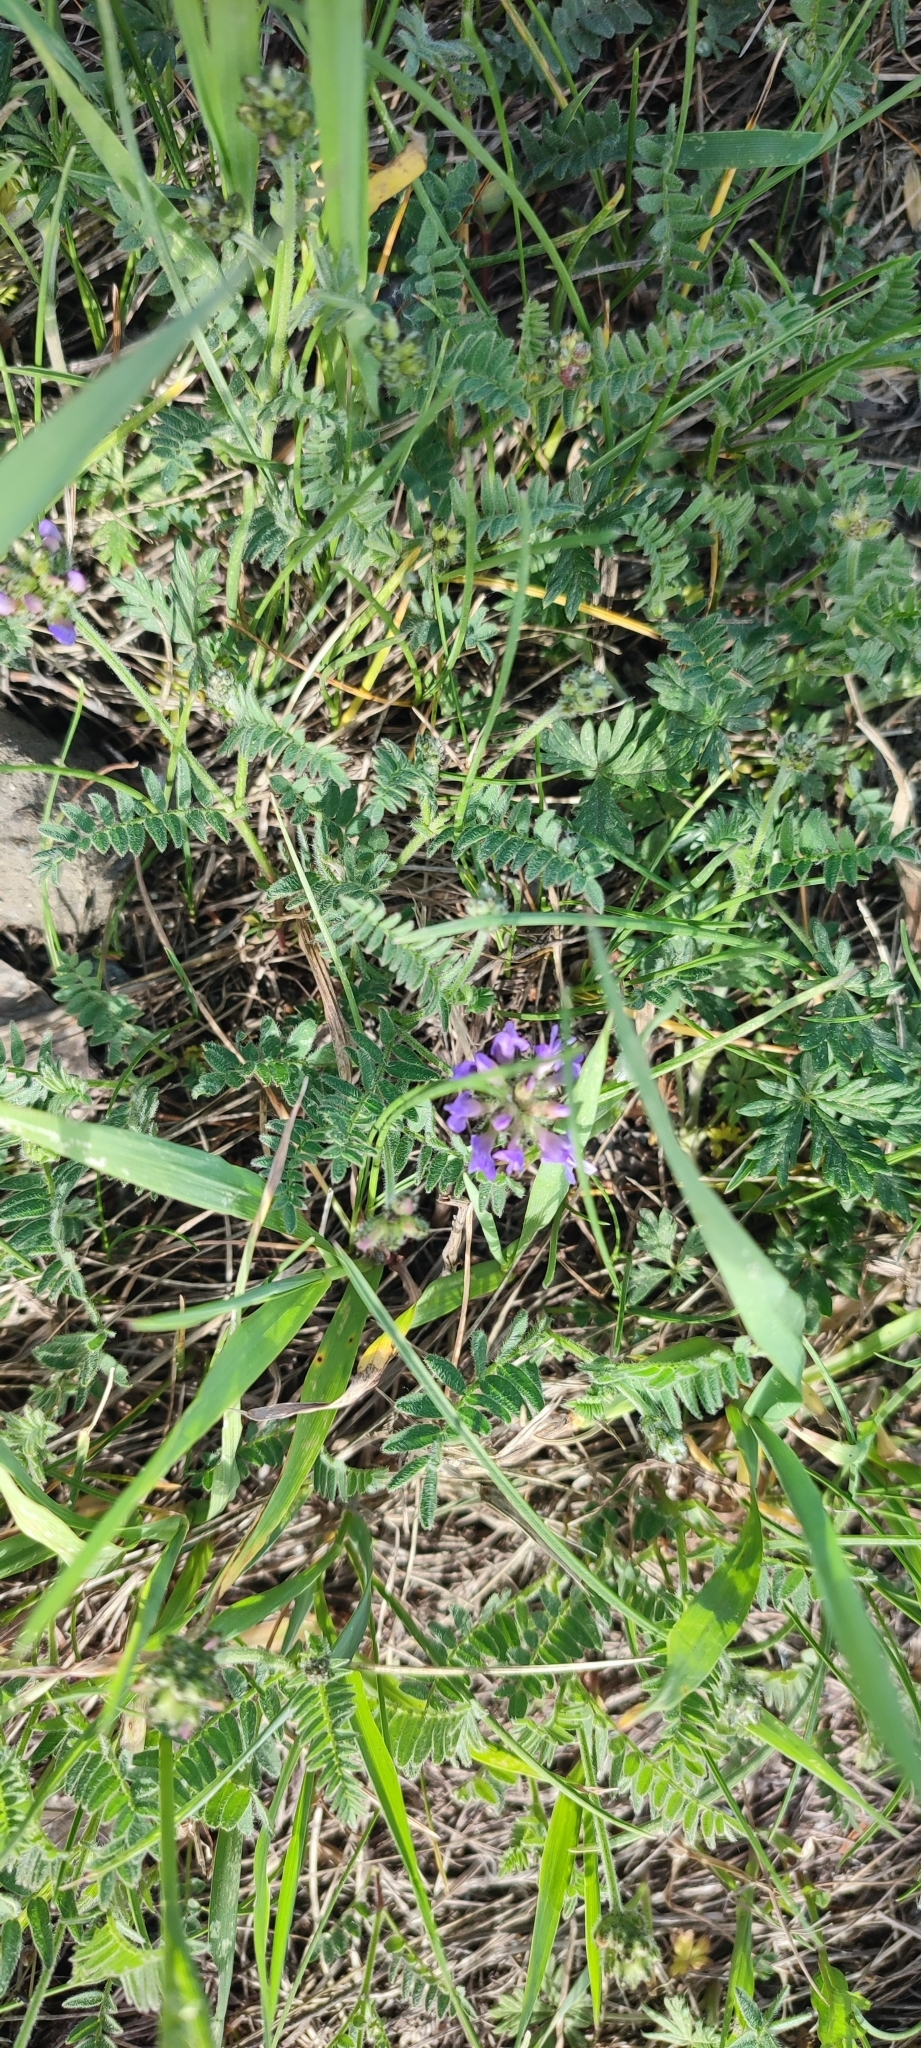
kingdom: Plantae
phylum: Tracheophyta
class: Magnoliopsida
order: Fabales
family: Fabaceae
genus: Astragalus
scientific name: Astragalus danicus
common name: Purple milk-vetch
